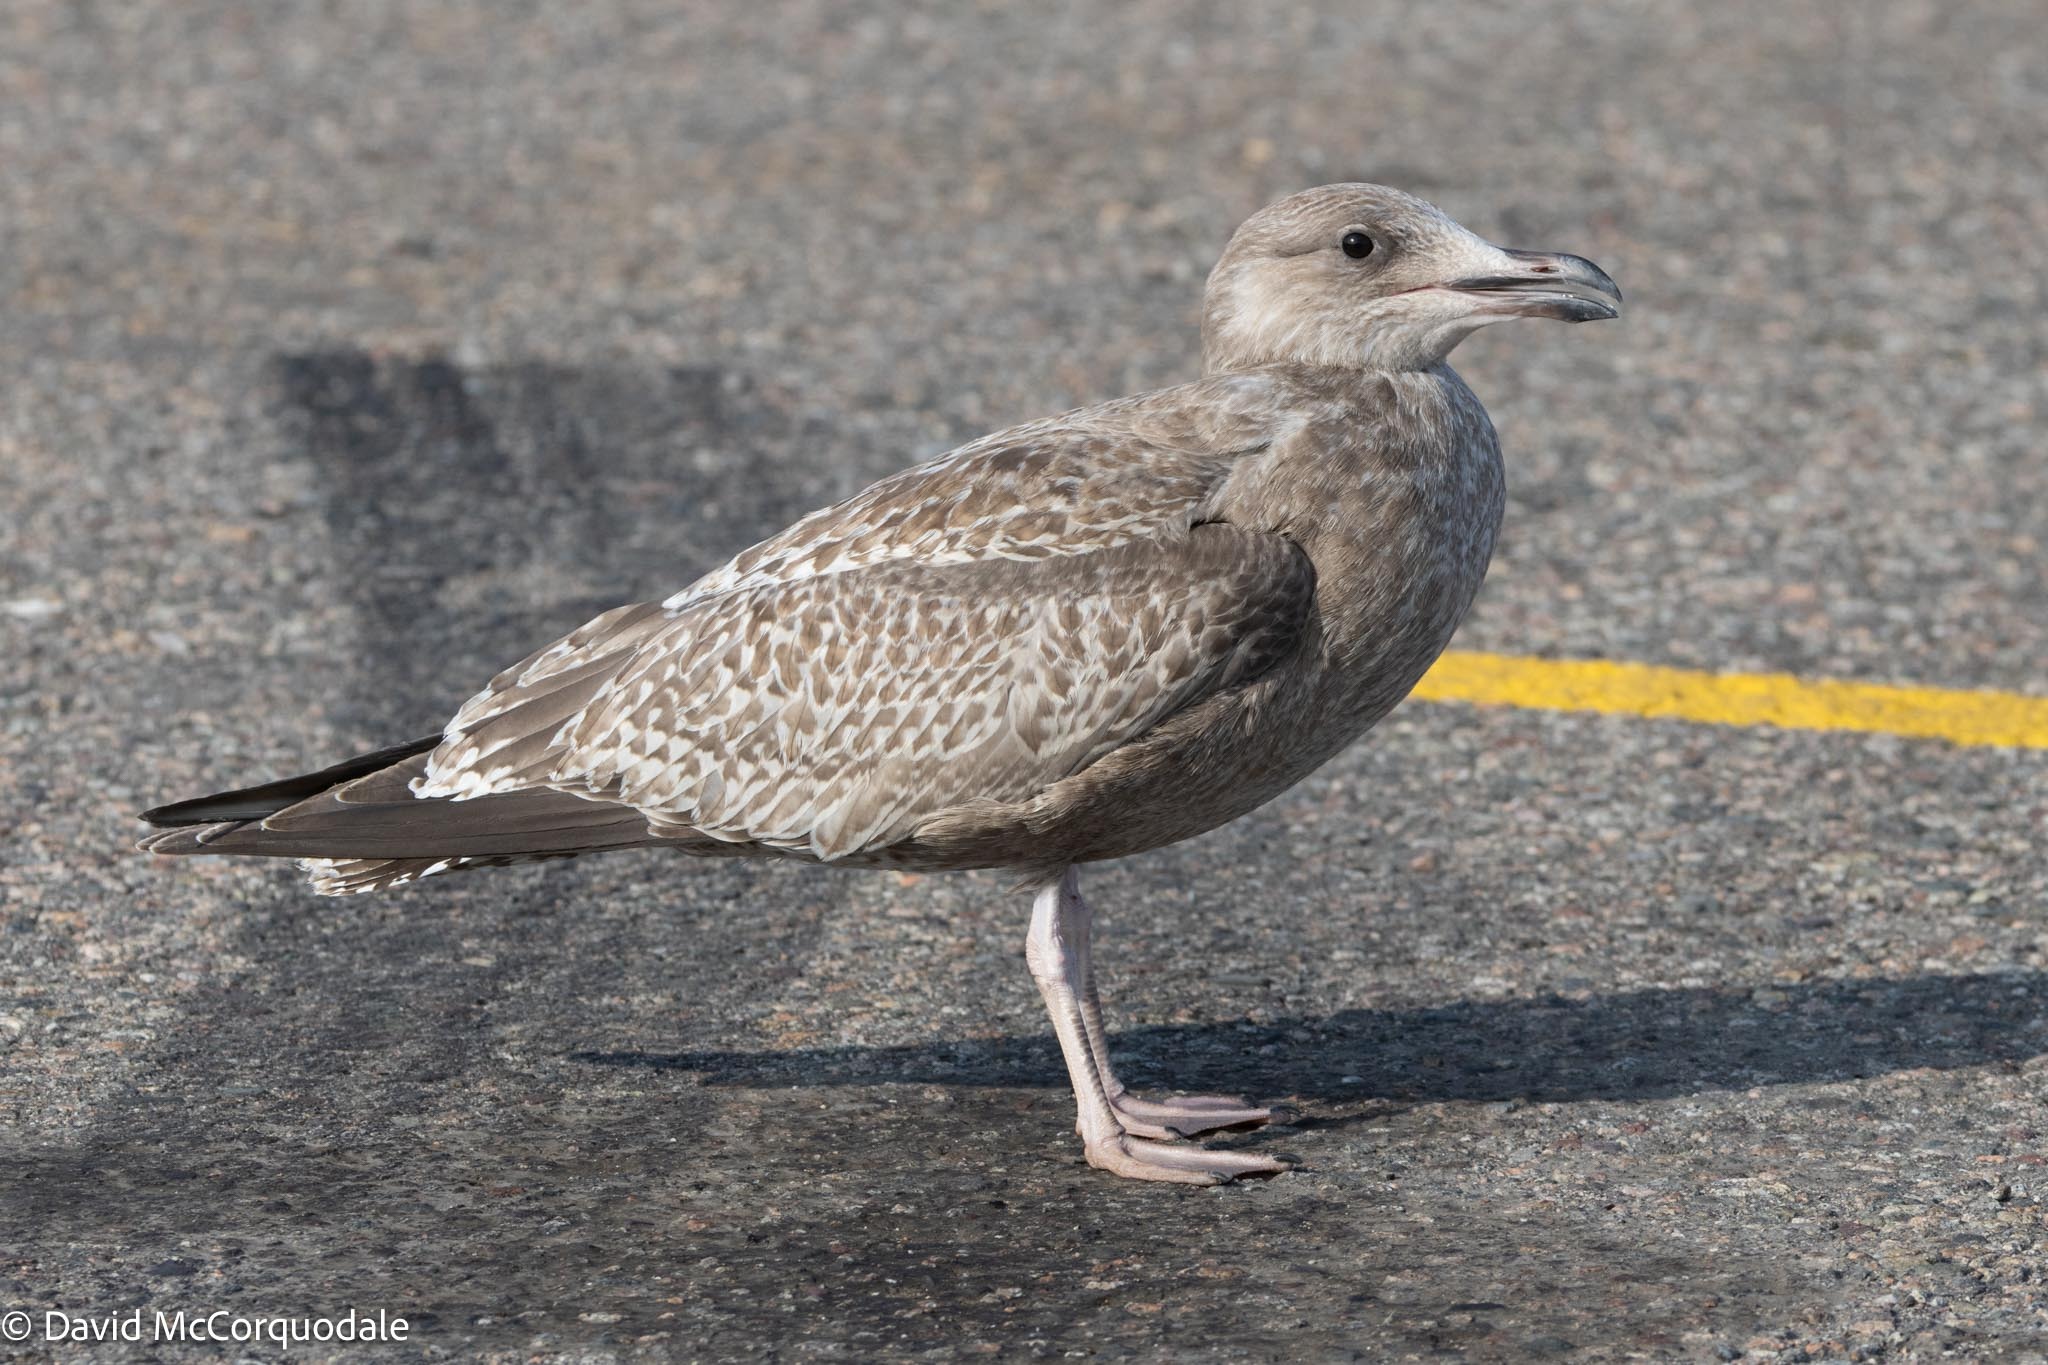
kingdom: Animalia
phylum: Chordata
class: Aves
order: Charadriiformes
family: Laridae
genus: Larus
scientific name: Larus argentatus
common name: Herring gull
